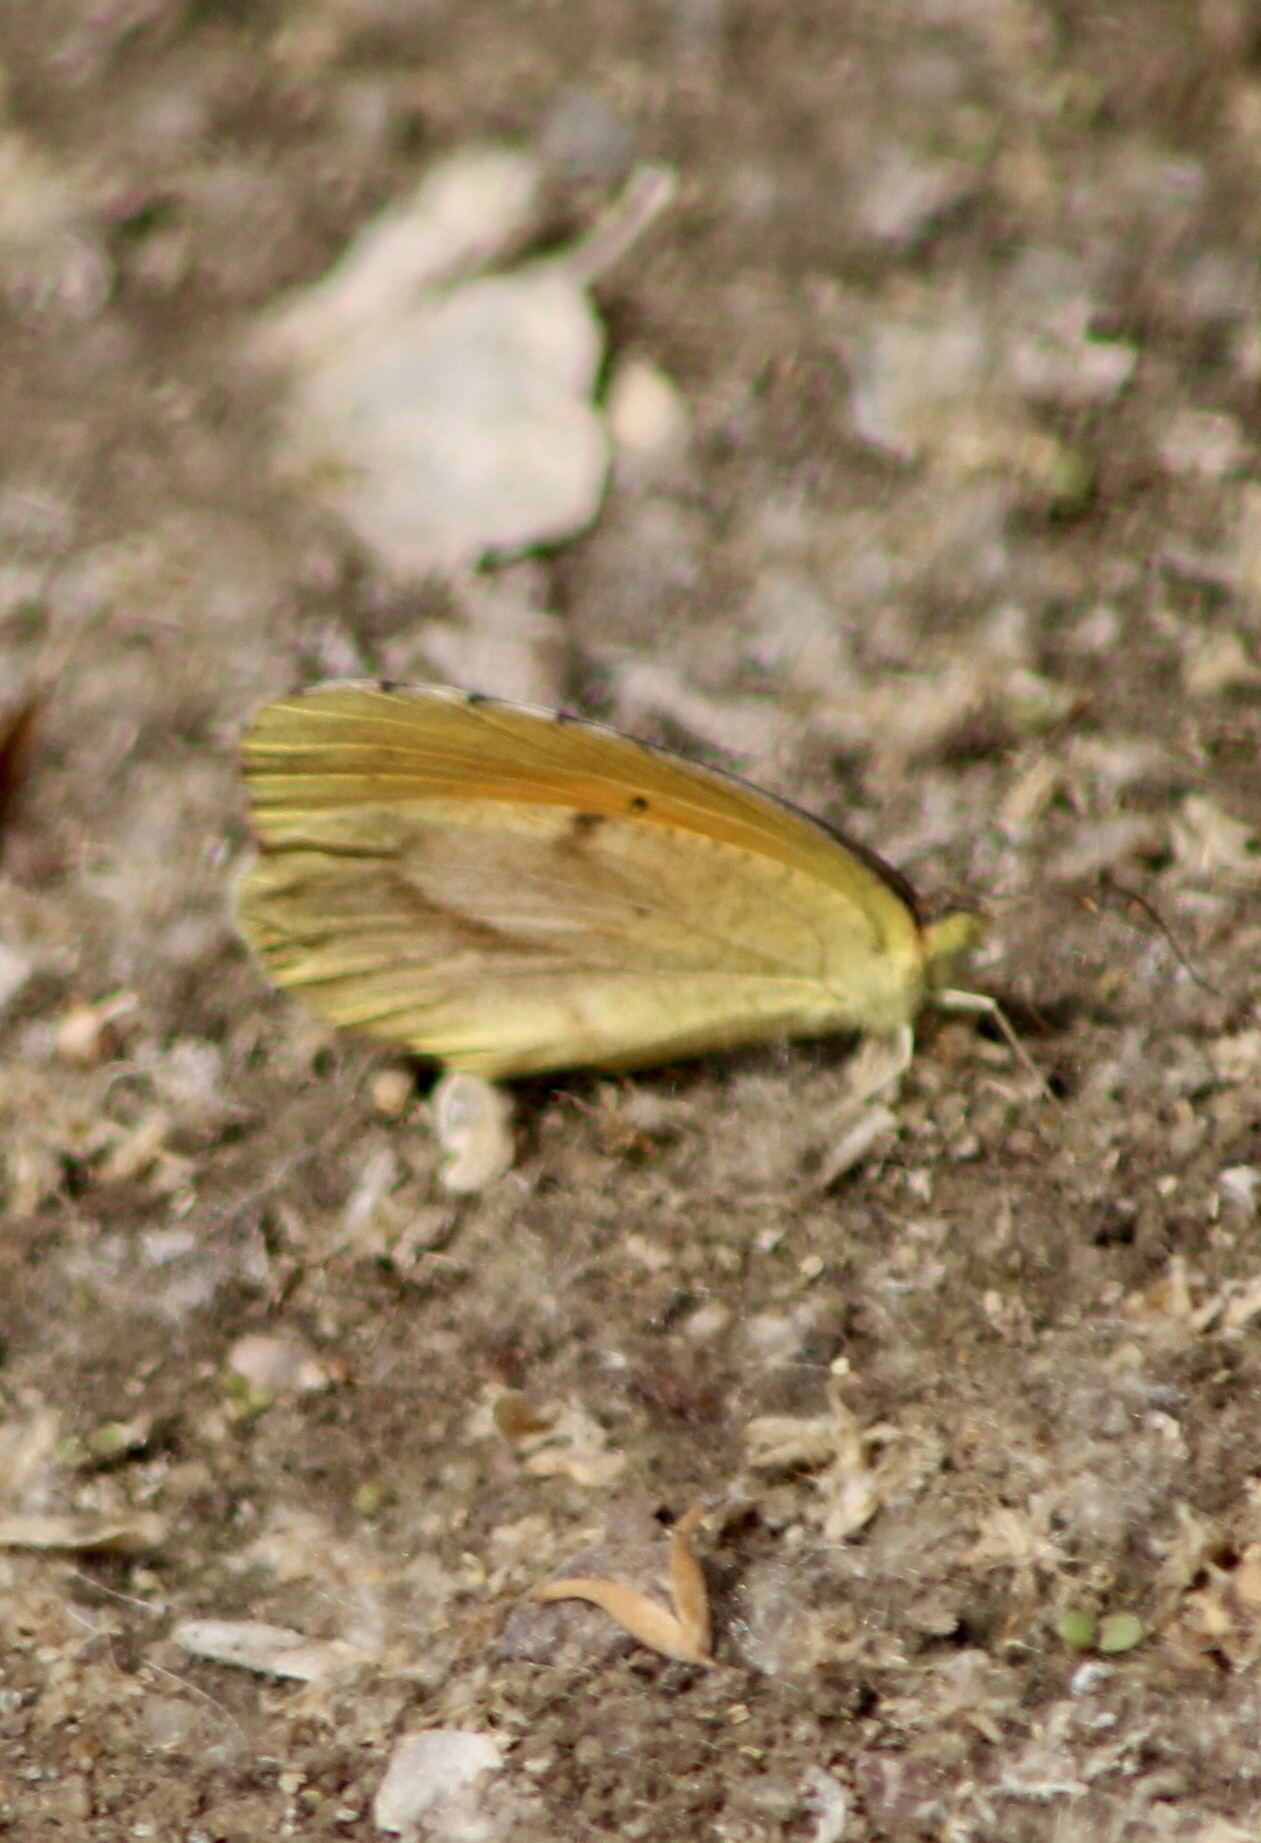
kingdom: Animalia
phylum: Arthropoda
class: Insecta
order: Lepidoptera
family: Pieridae
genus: Abaeis
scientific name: Abaeis nicippe
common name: Sleepy orange
